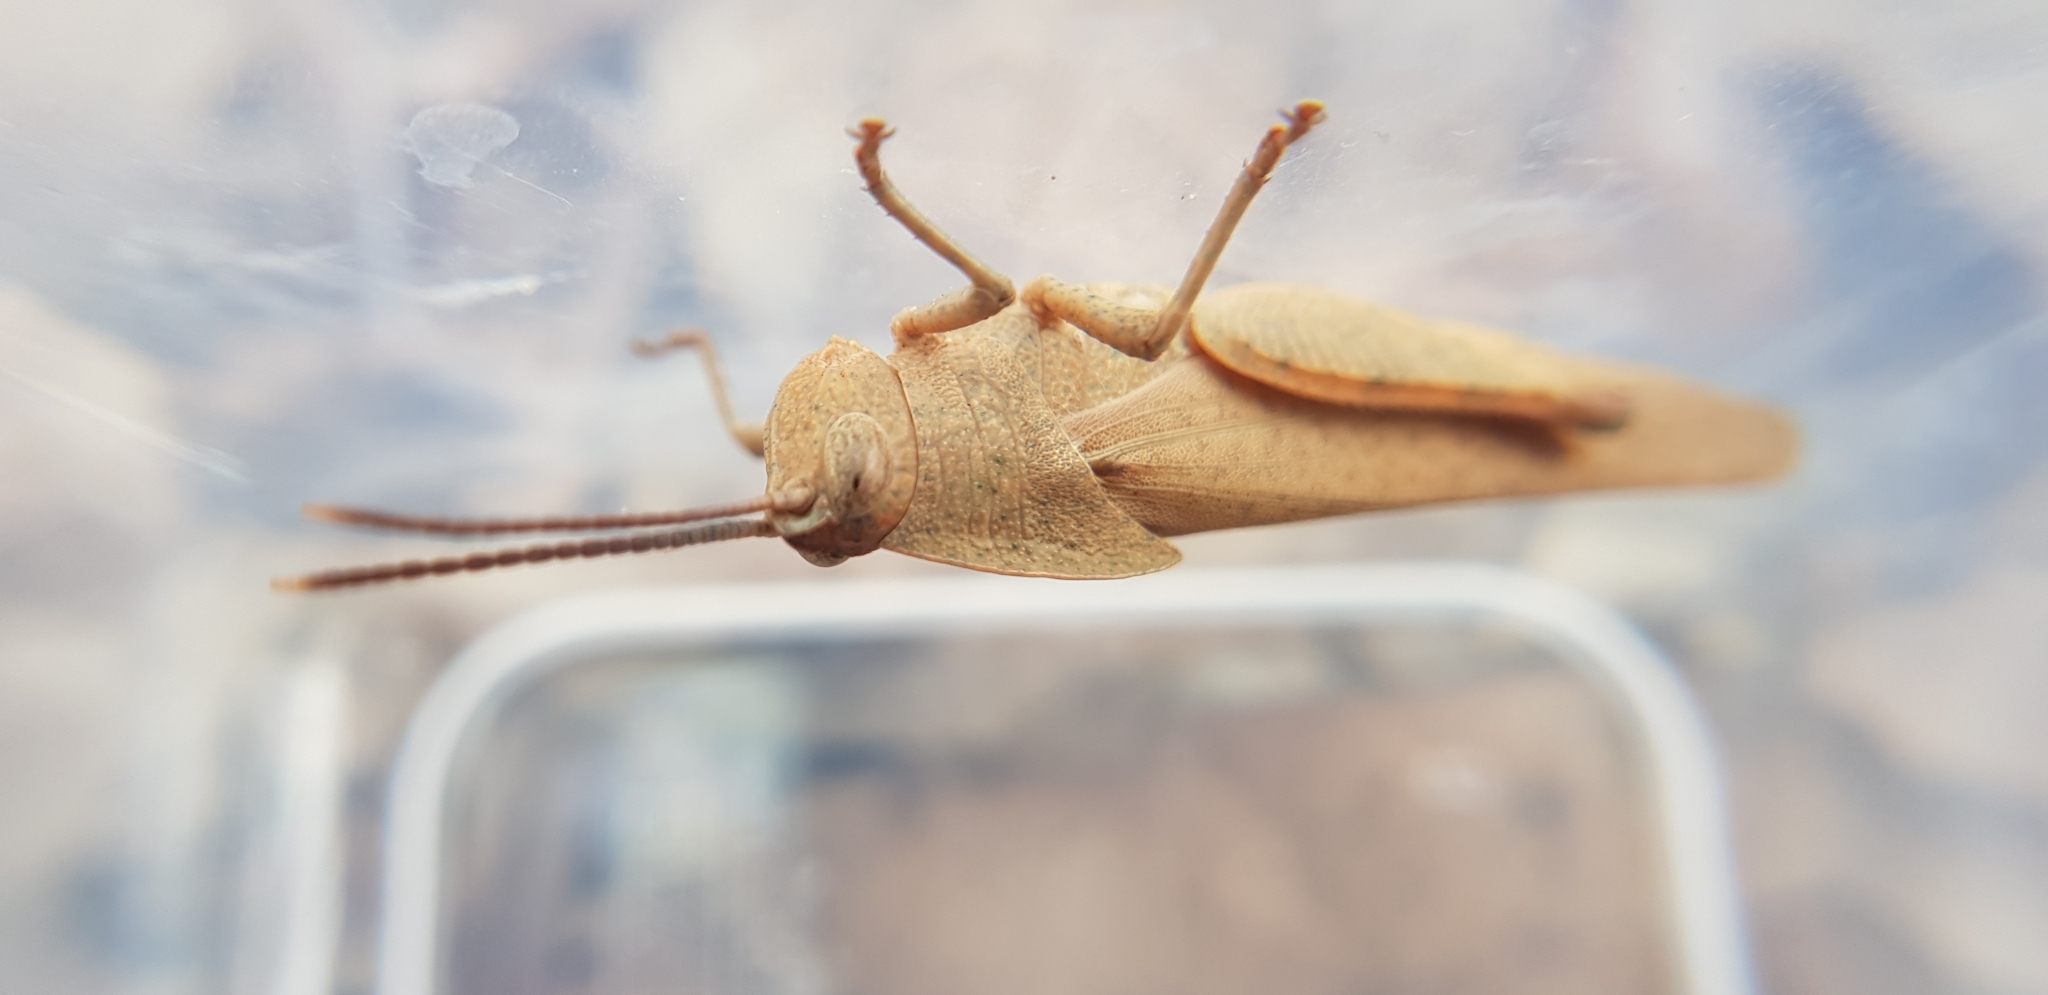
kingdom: Animalia
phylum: Arthropoda
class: Insecta
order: Orthoptera
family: Acrididae
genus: Goniaea
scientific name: Goniaea australasiae
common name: Gumleaf grasshopper
